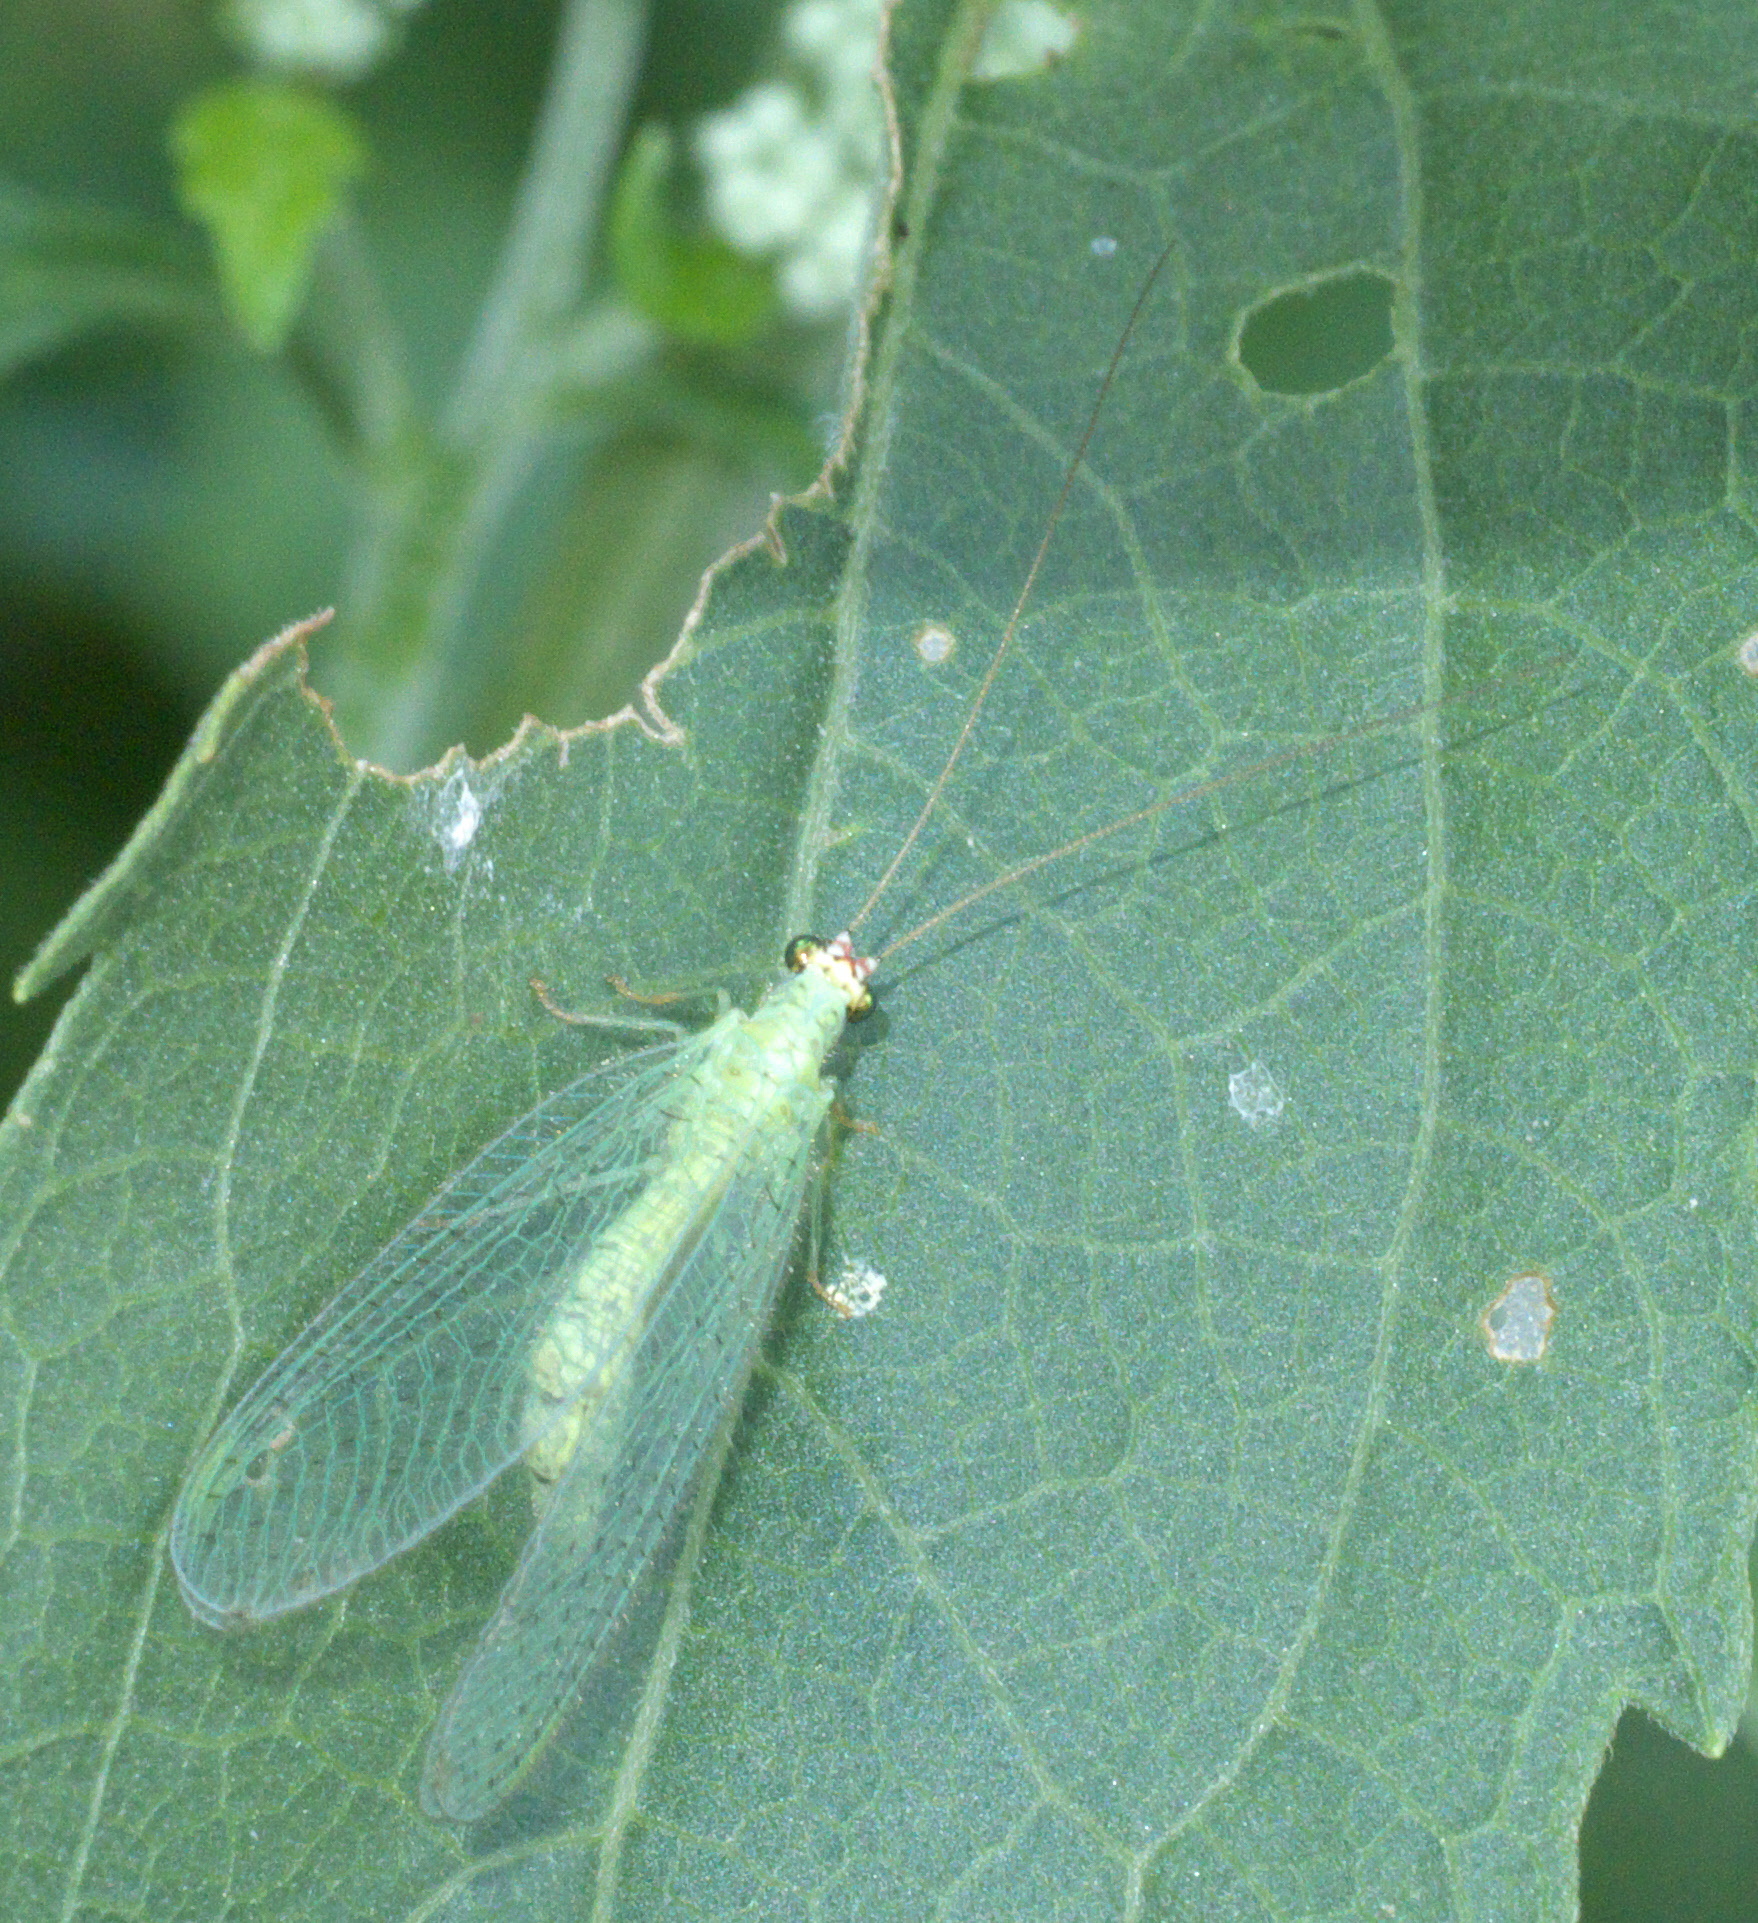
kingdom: Animalia
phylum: Arthropoda
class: Insecta
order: Neuroptera
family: Chrysopidae
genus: Chrysopa
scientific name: Chrysopa oculata
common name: Golden-eyed lacewing
